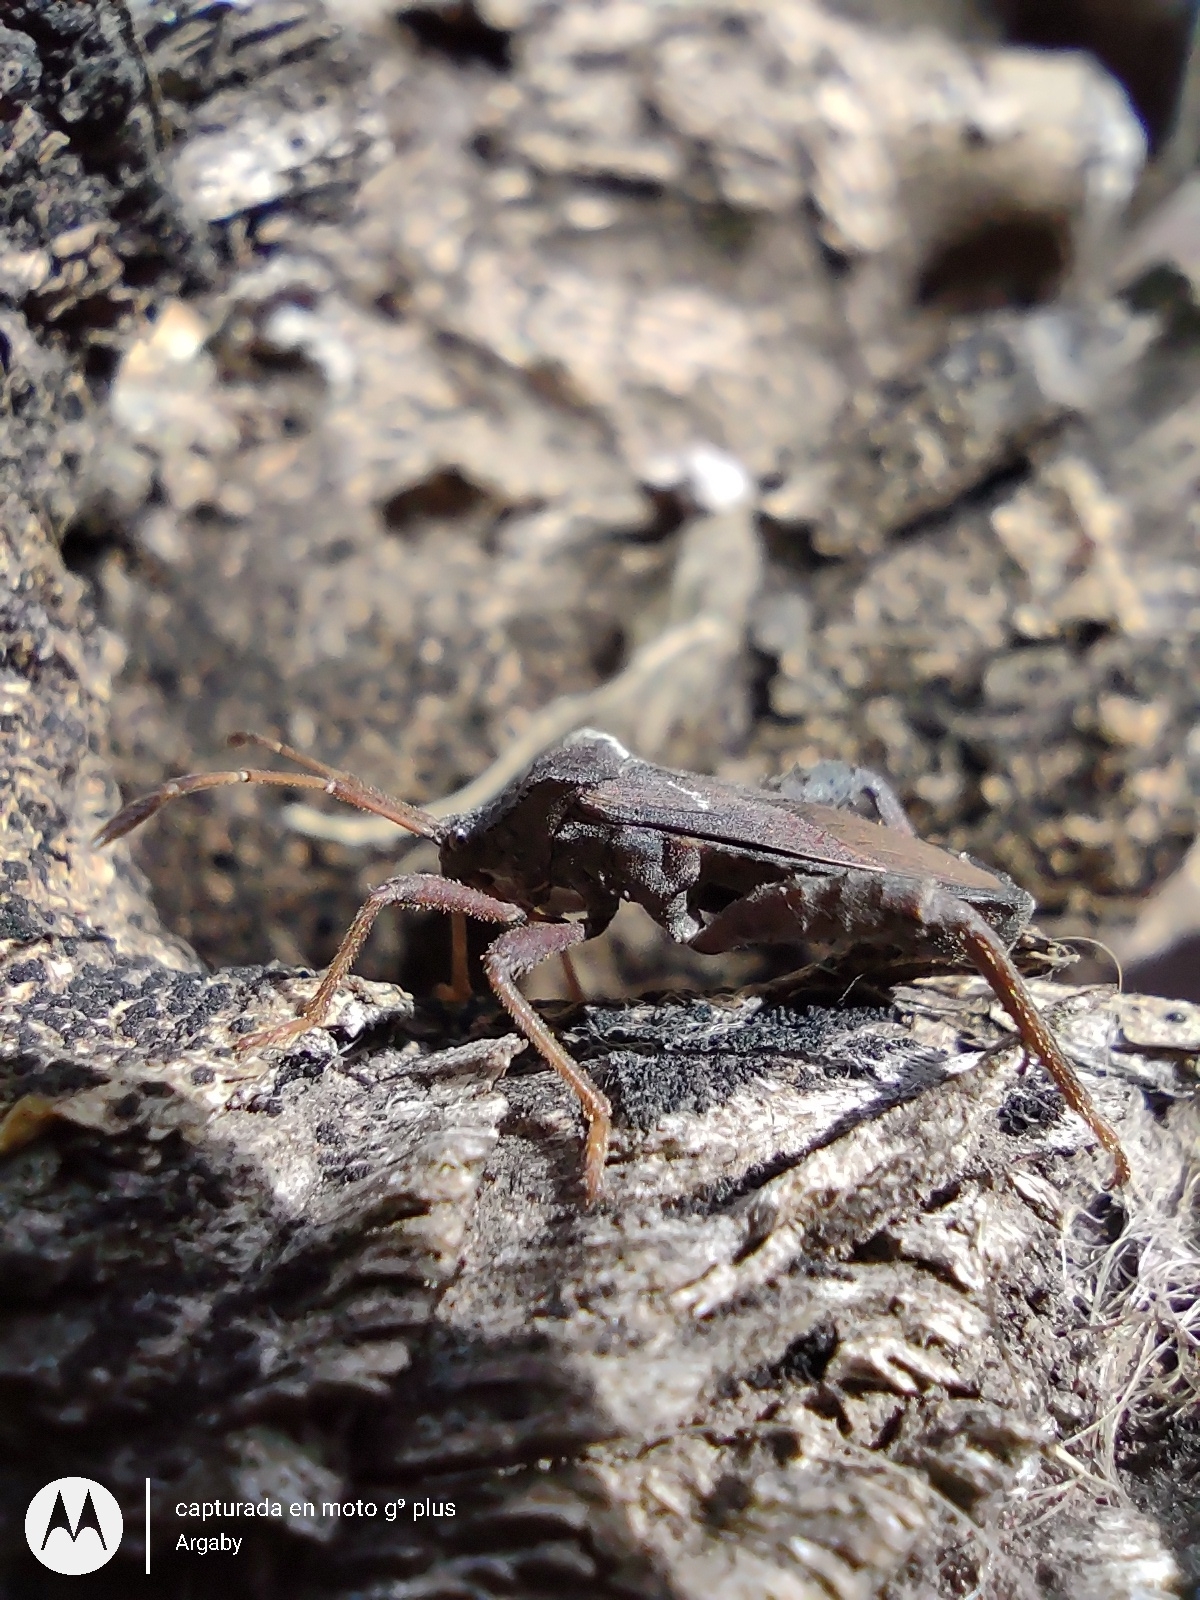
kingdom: Animalia
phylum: Arthropoda
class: Insecta
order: Hemiptera
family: Coreidae
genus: Camptischium
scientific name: Camptischium clavipes
